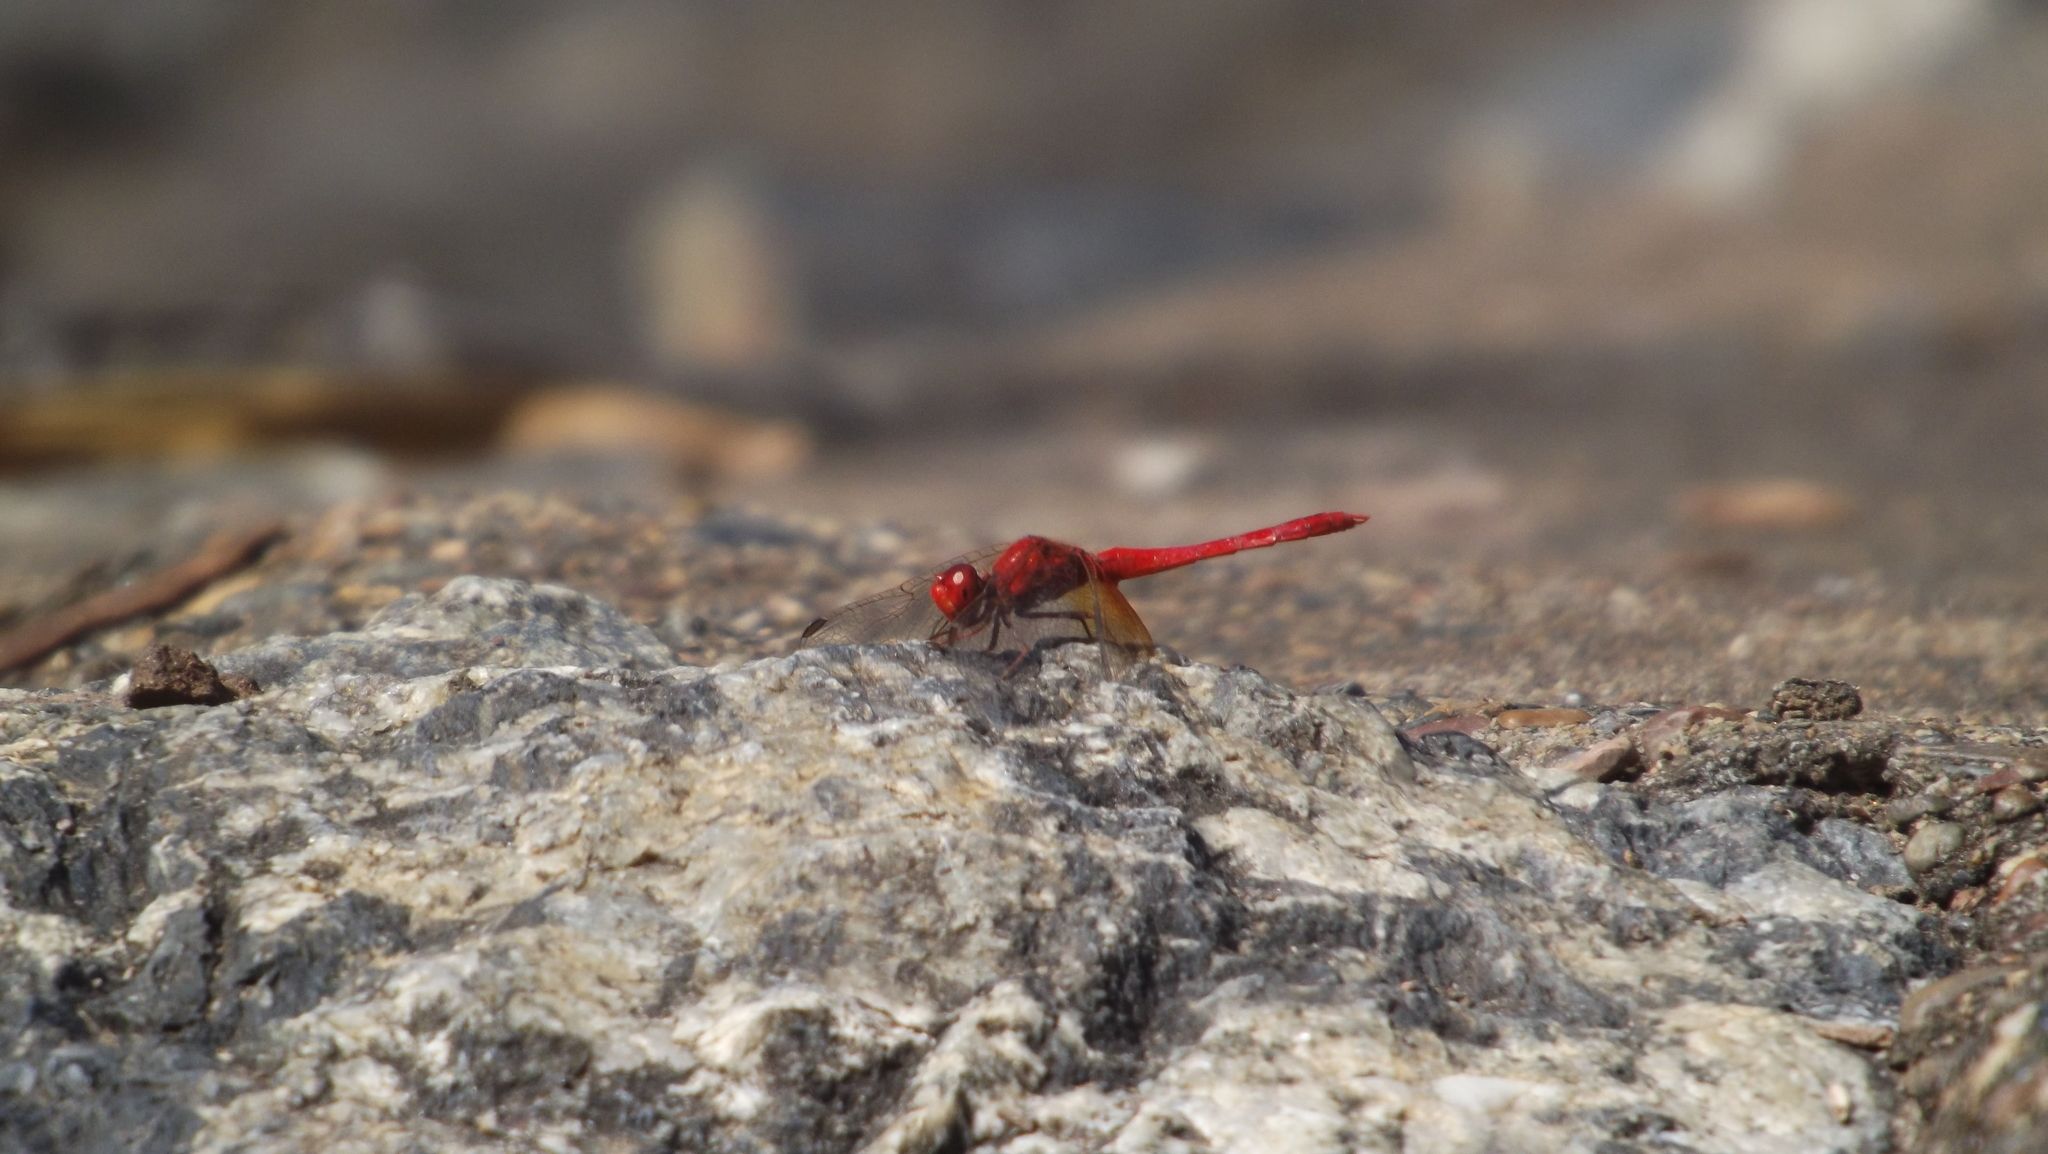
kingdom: Animalia
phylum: Arthropoda
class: Insecta
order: Odonata
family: Libellulidae
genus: Diplacodes
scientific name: Diplacodes haematodes
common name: Scarlet percher
